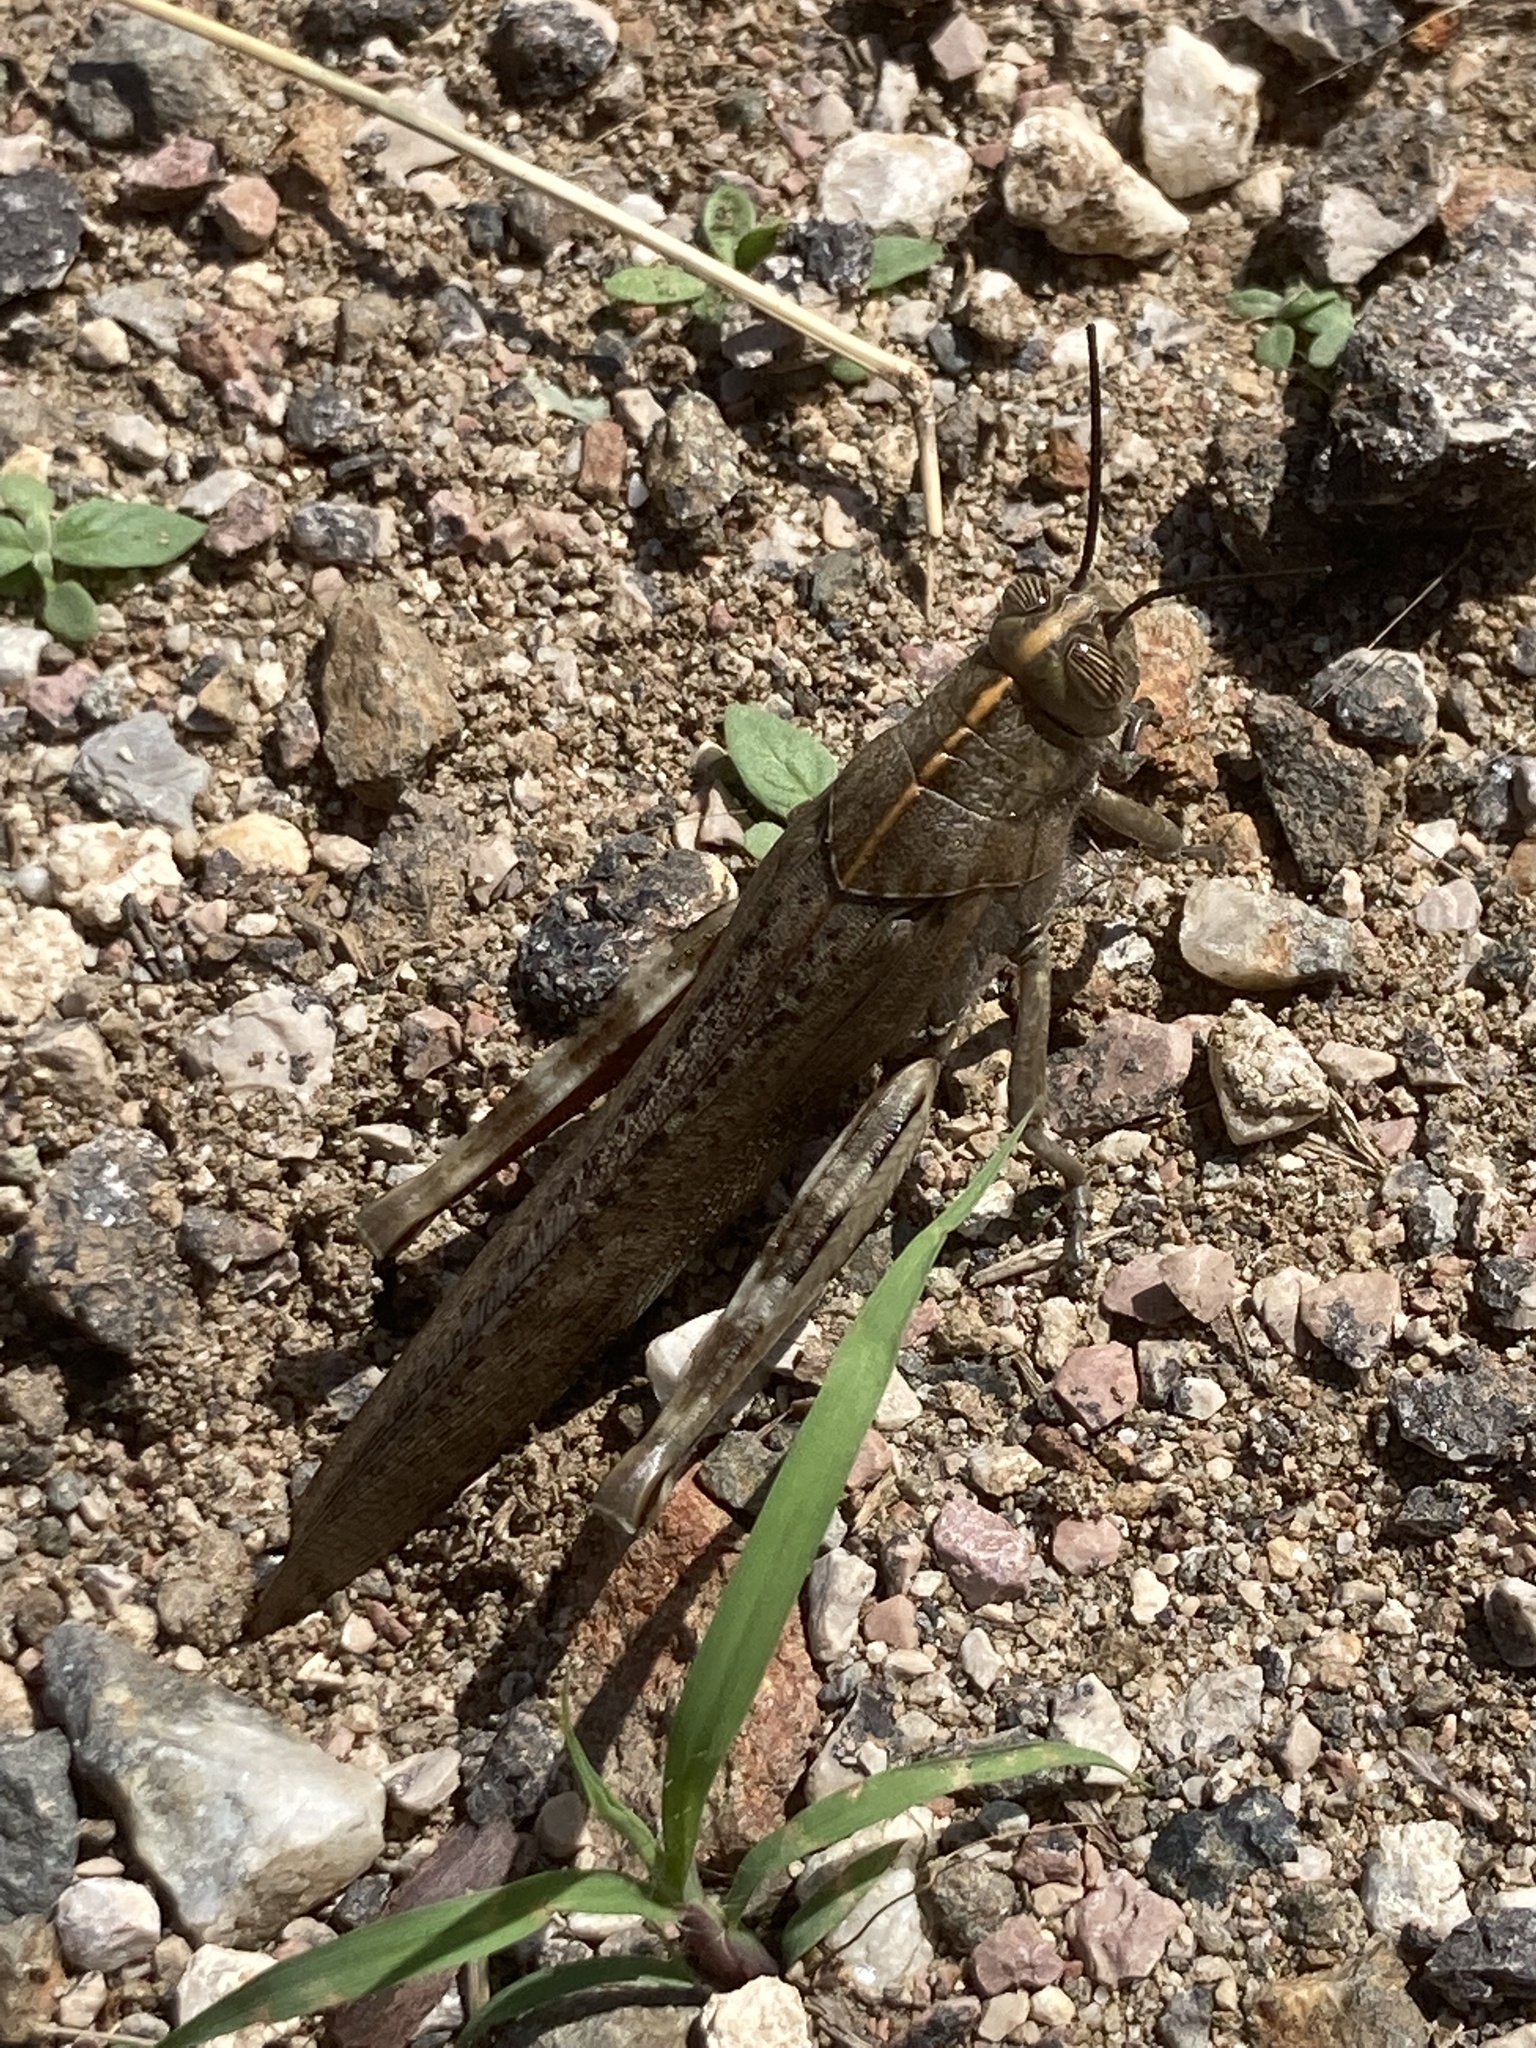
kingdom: Animalia
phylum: Arthropoda
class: Insecta
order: Orthoptera
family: Acrididae
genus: Anacridium
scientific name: Anacridium aegyptium
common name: Egyptian grasshopper
